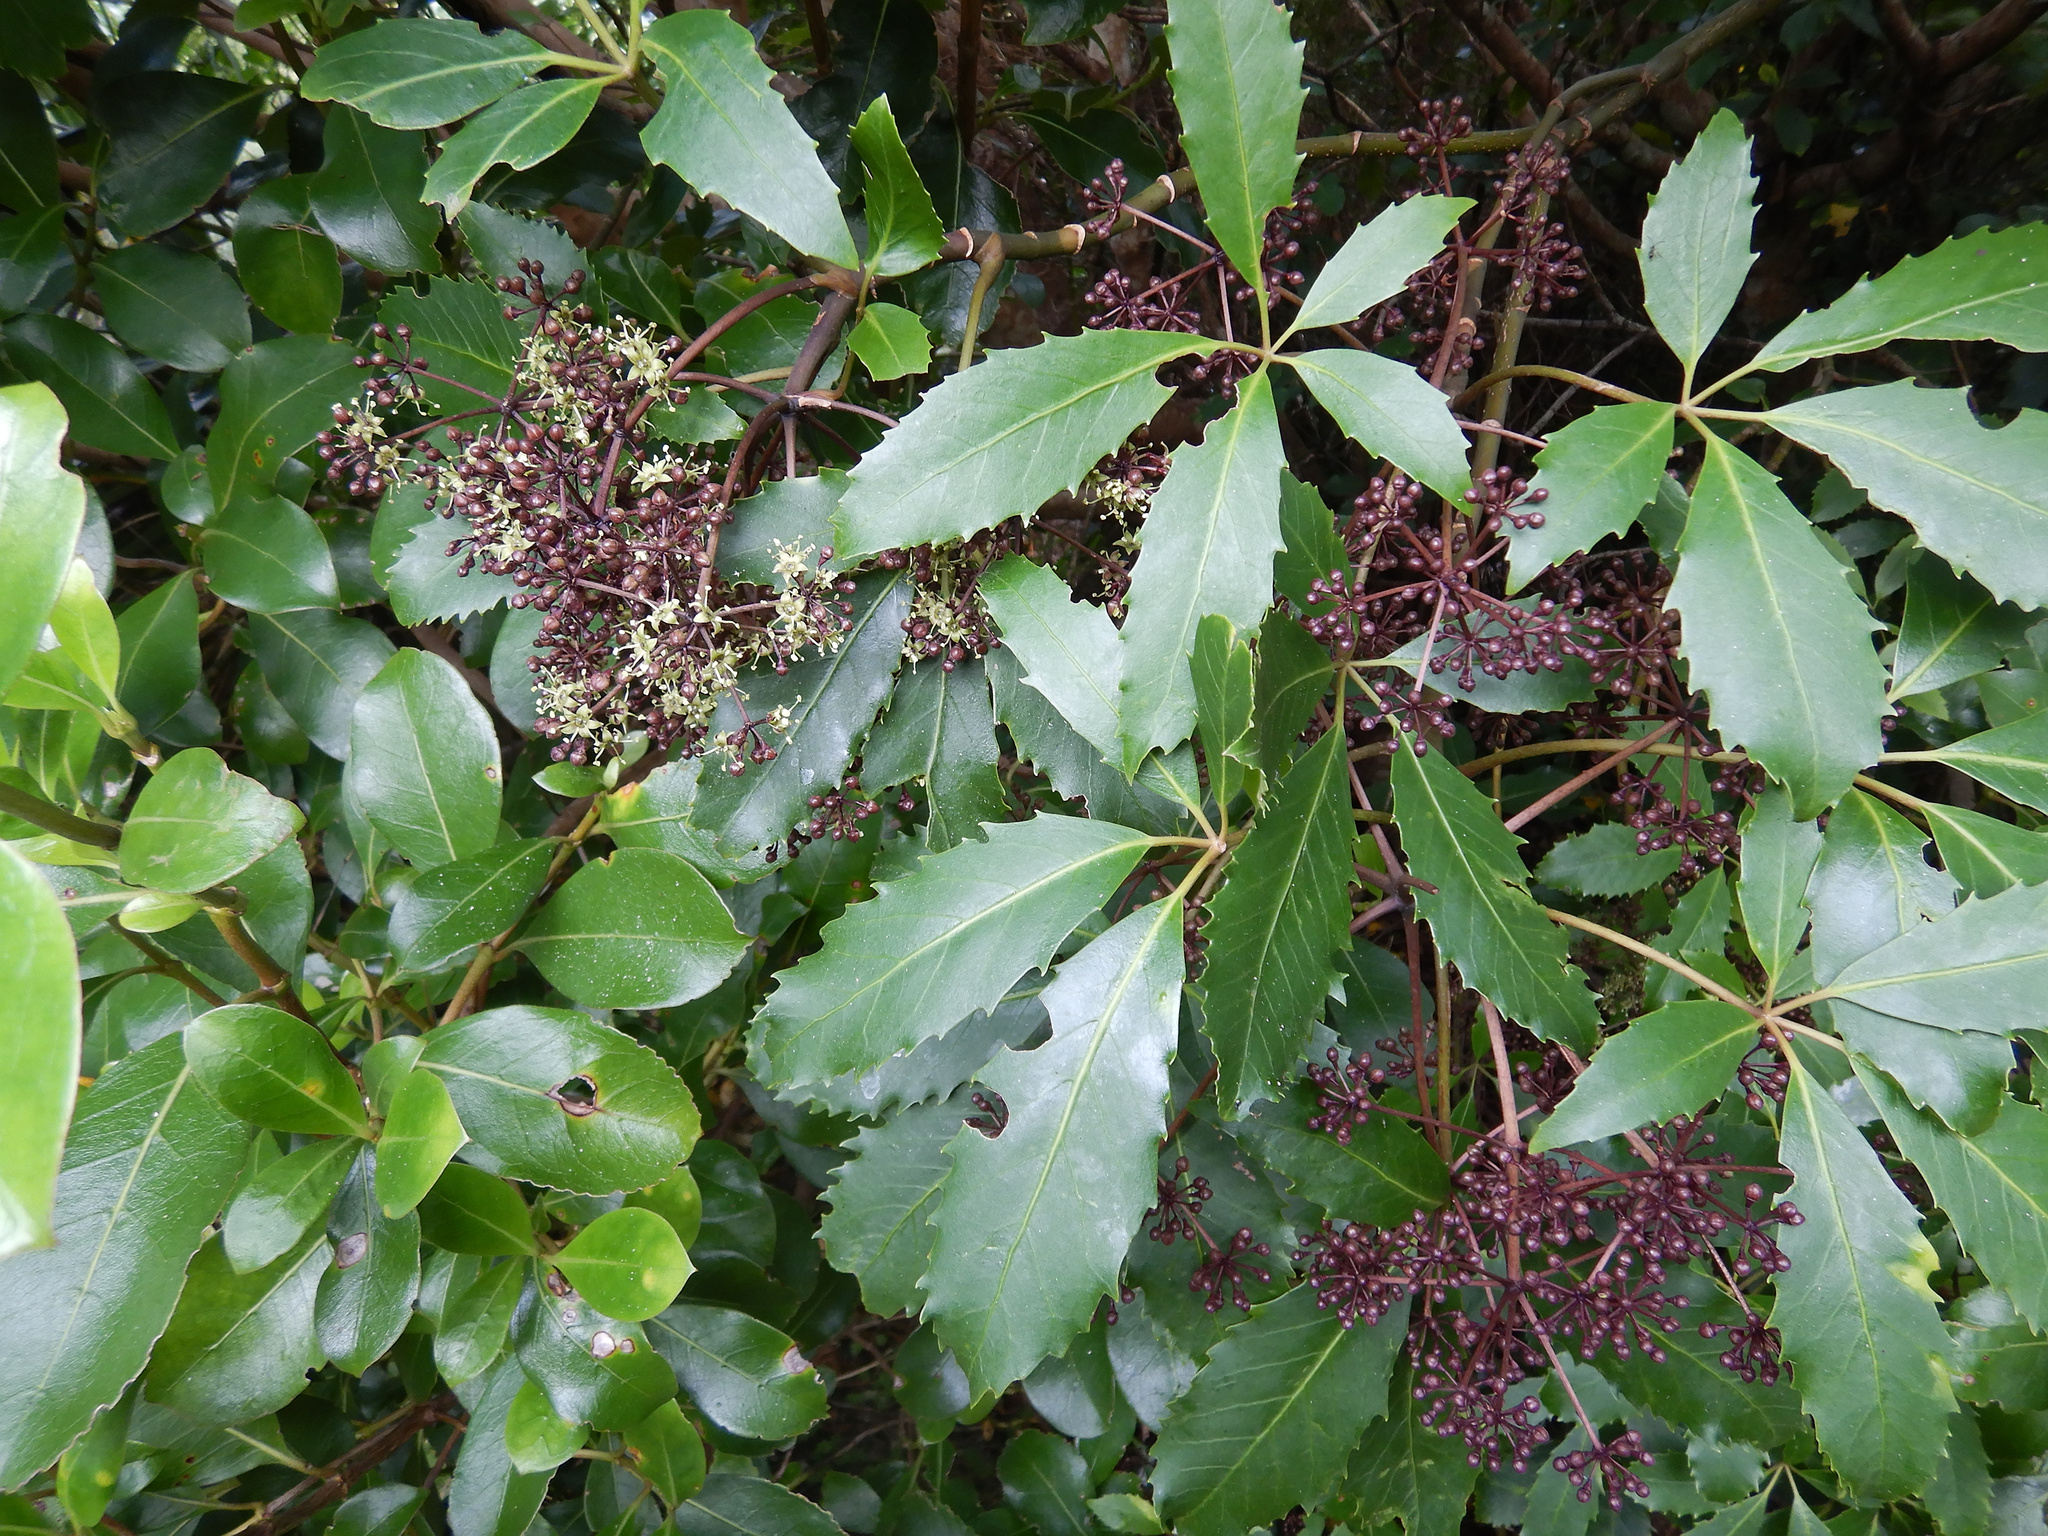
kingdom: Plantae
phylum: Tracheophyta
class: Magnoliopsida
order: Apiales
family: Araliaceae
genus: Neopanax
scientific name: Neopanax arboreus
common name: Five-fingers
